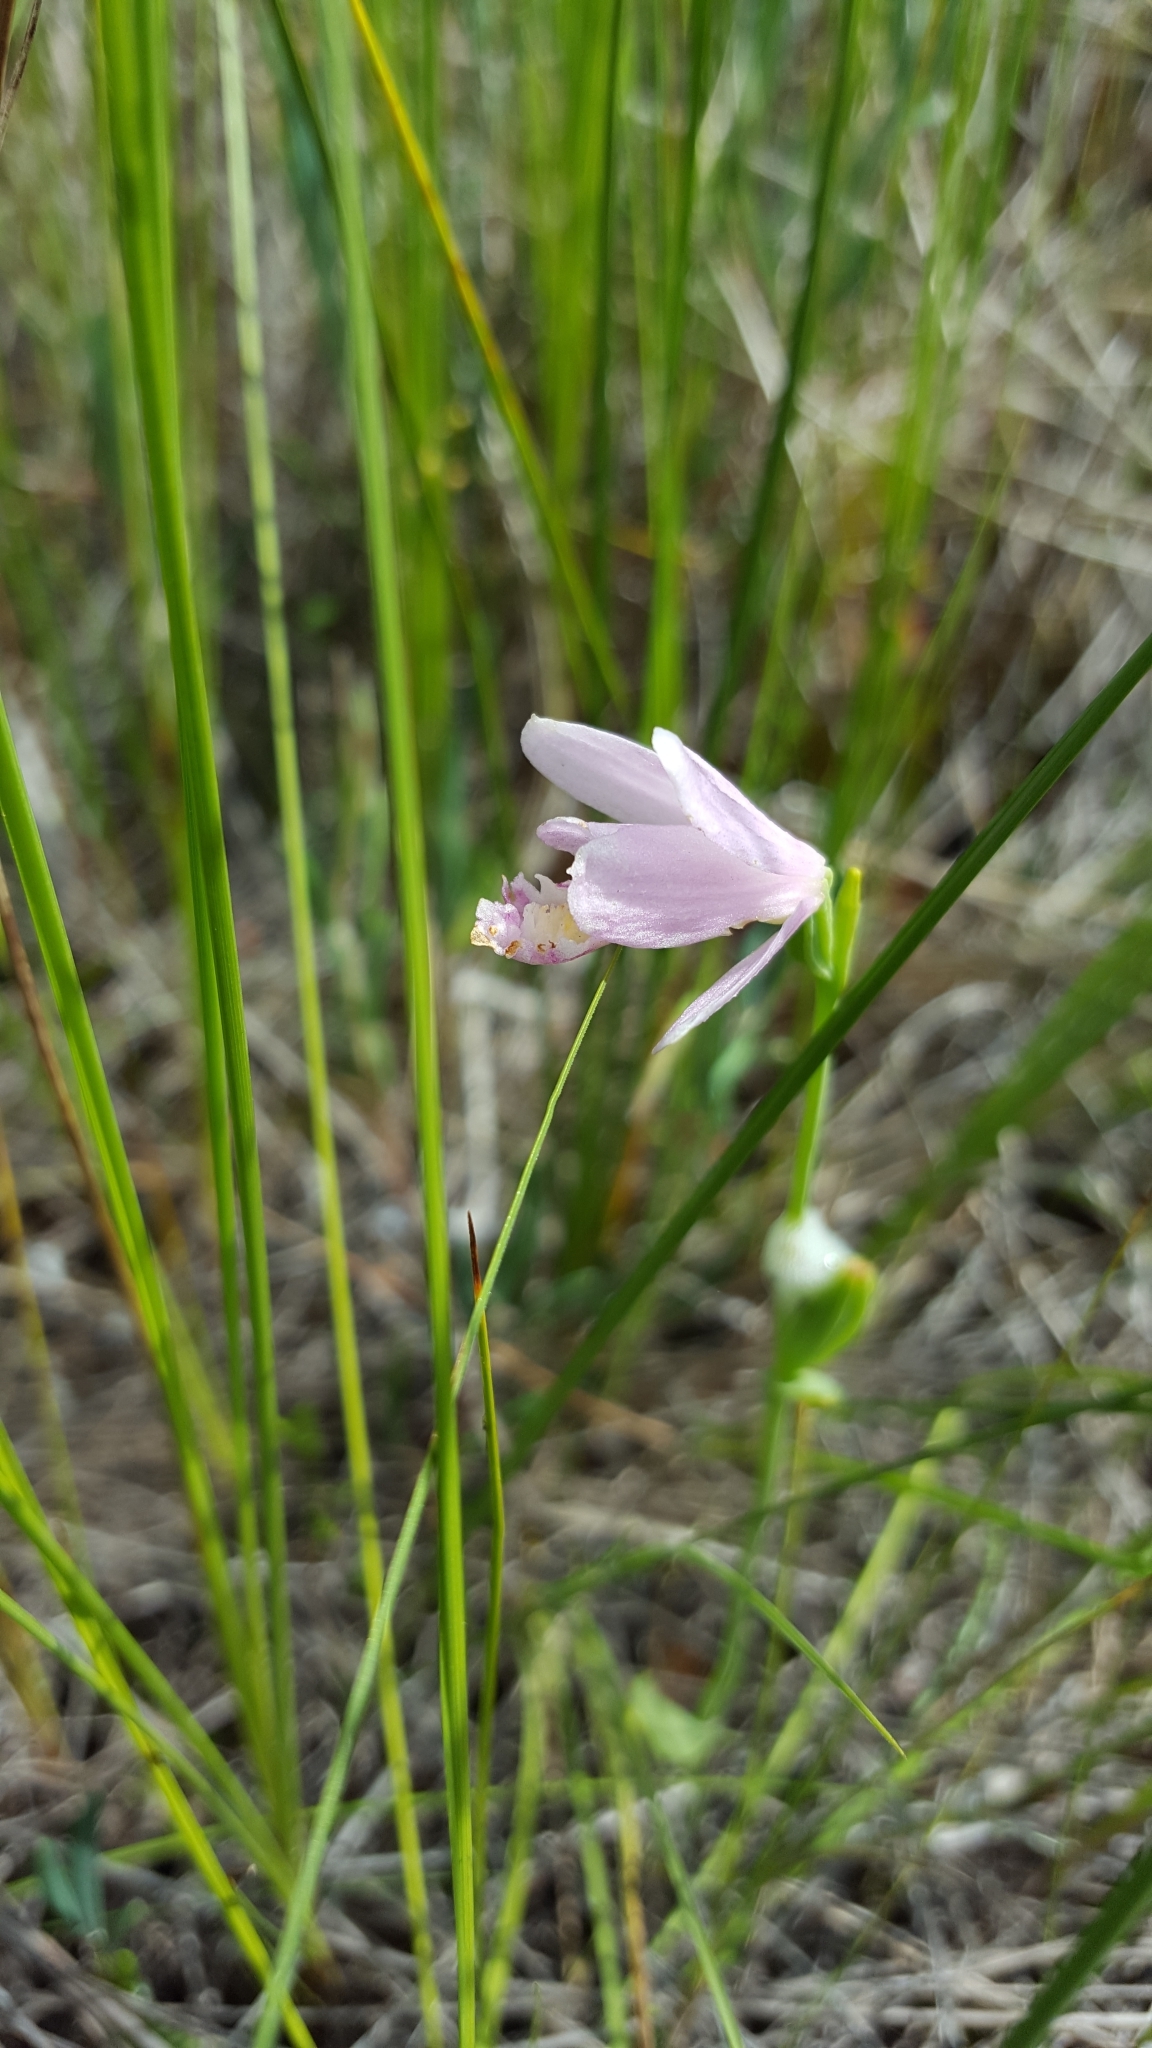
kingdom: Plantae
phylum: Tracheophyta
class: Liliopsida
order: Asparagales
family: Orchidaceae
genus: Pogonia
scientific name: Pogonia ophioglossoides
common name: Rose pogonia
